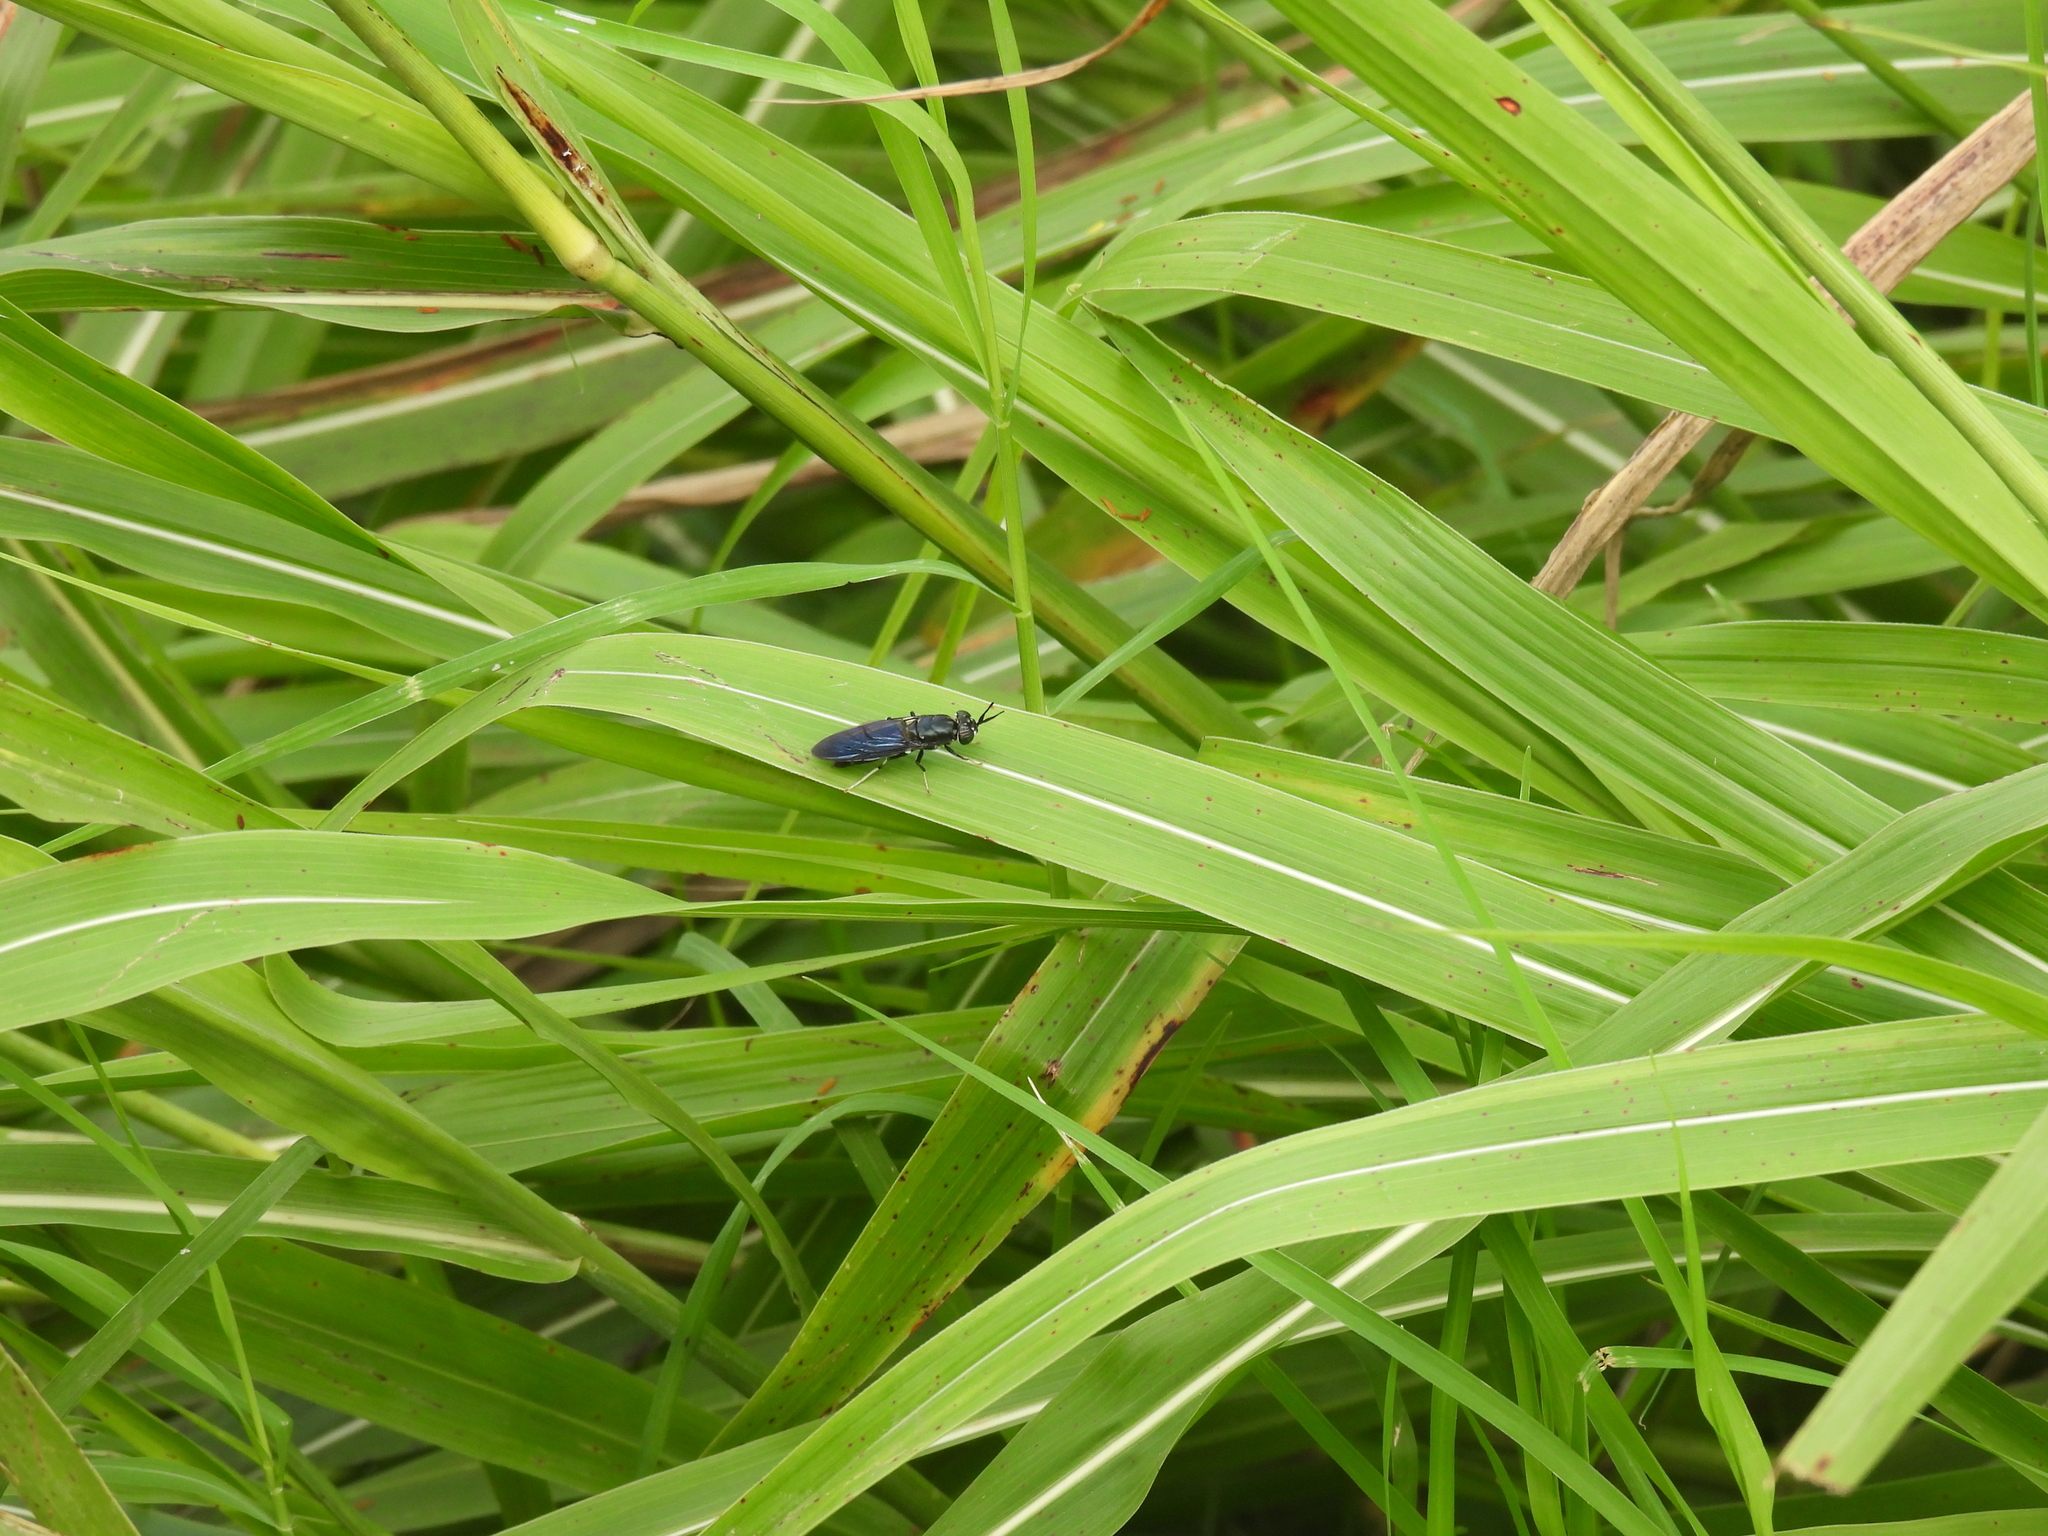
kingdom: Animalia
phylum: Arthropoda
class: Insecta
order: Diptera
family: Stratiomyidae
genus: Hermetia
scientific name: Hermetia illucens
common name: Black soldier fly
